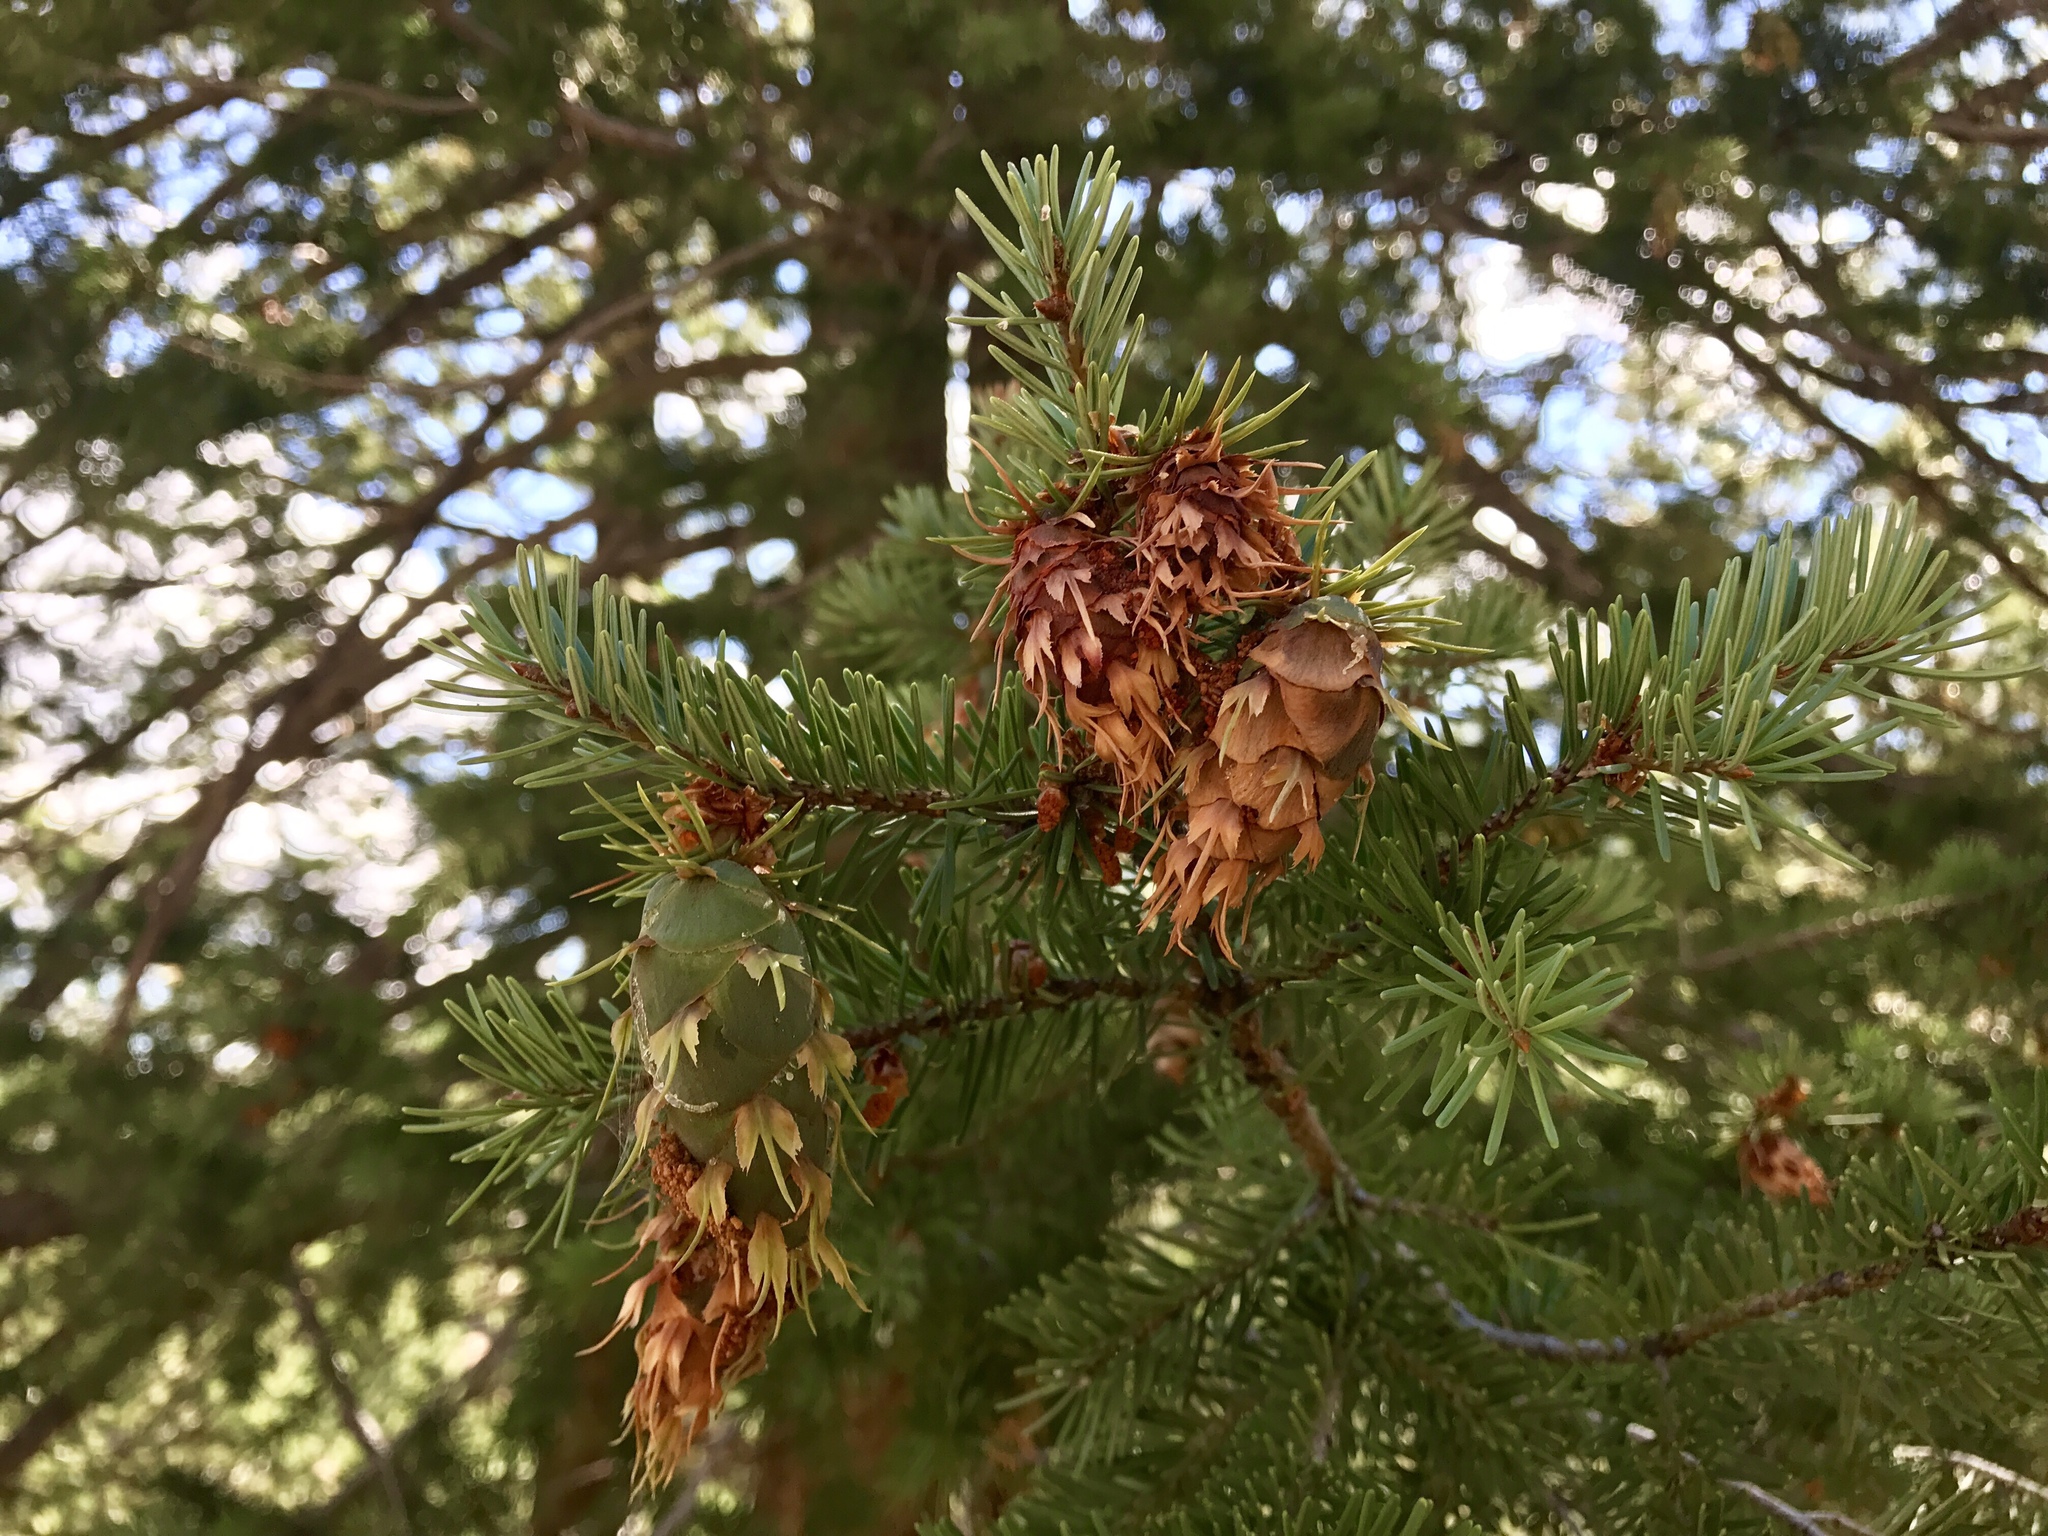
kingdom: Plantae
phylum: Tracheophyta
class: Pinopsida
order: Pinales
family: Pinaceae
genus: Pseudotsuga
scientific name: Pseudotsuga menziesii
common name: Douglas fir
